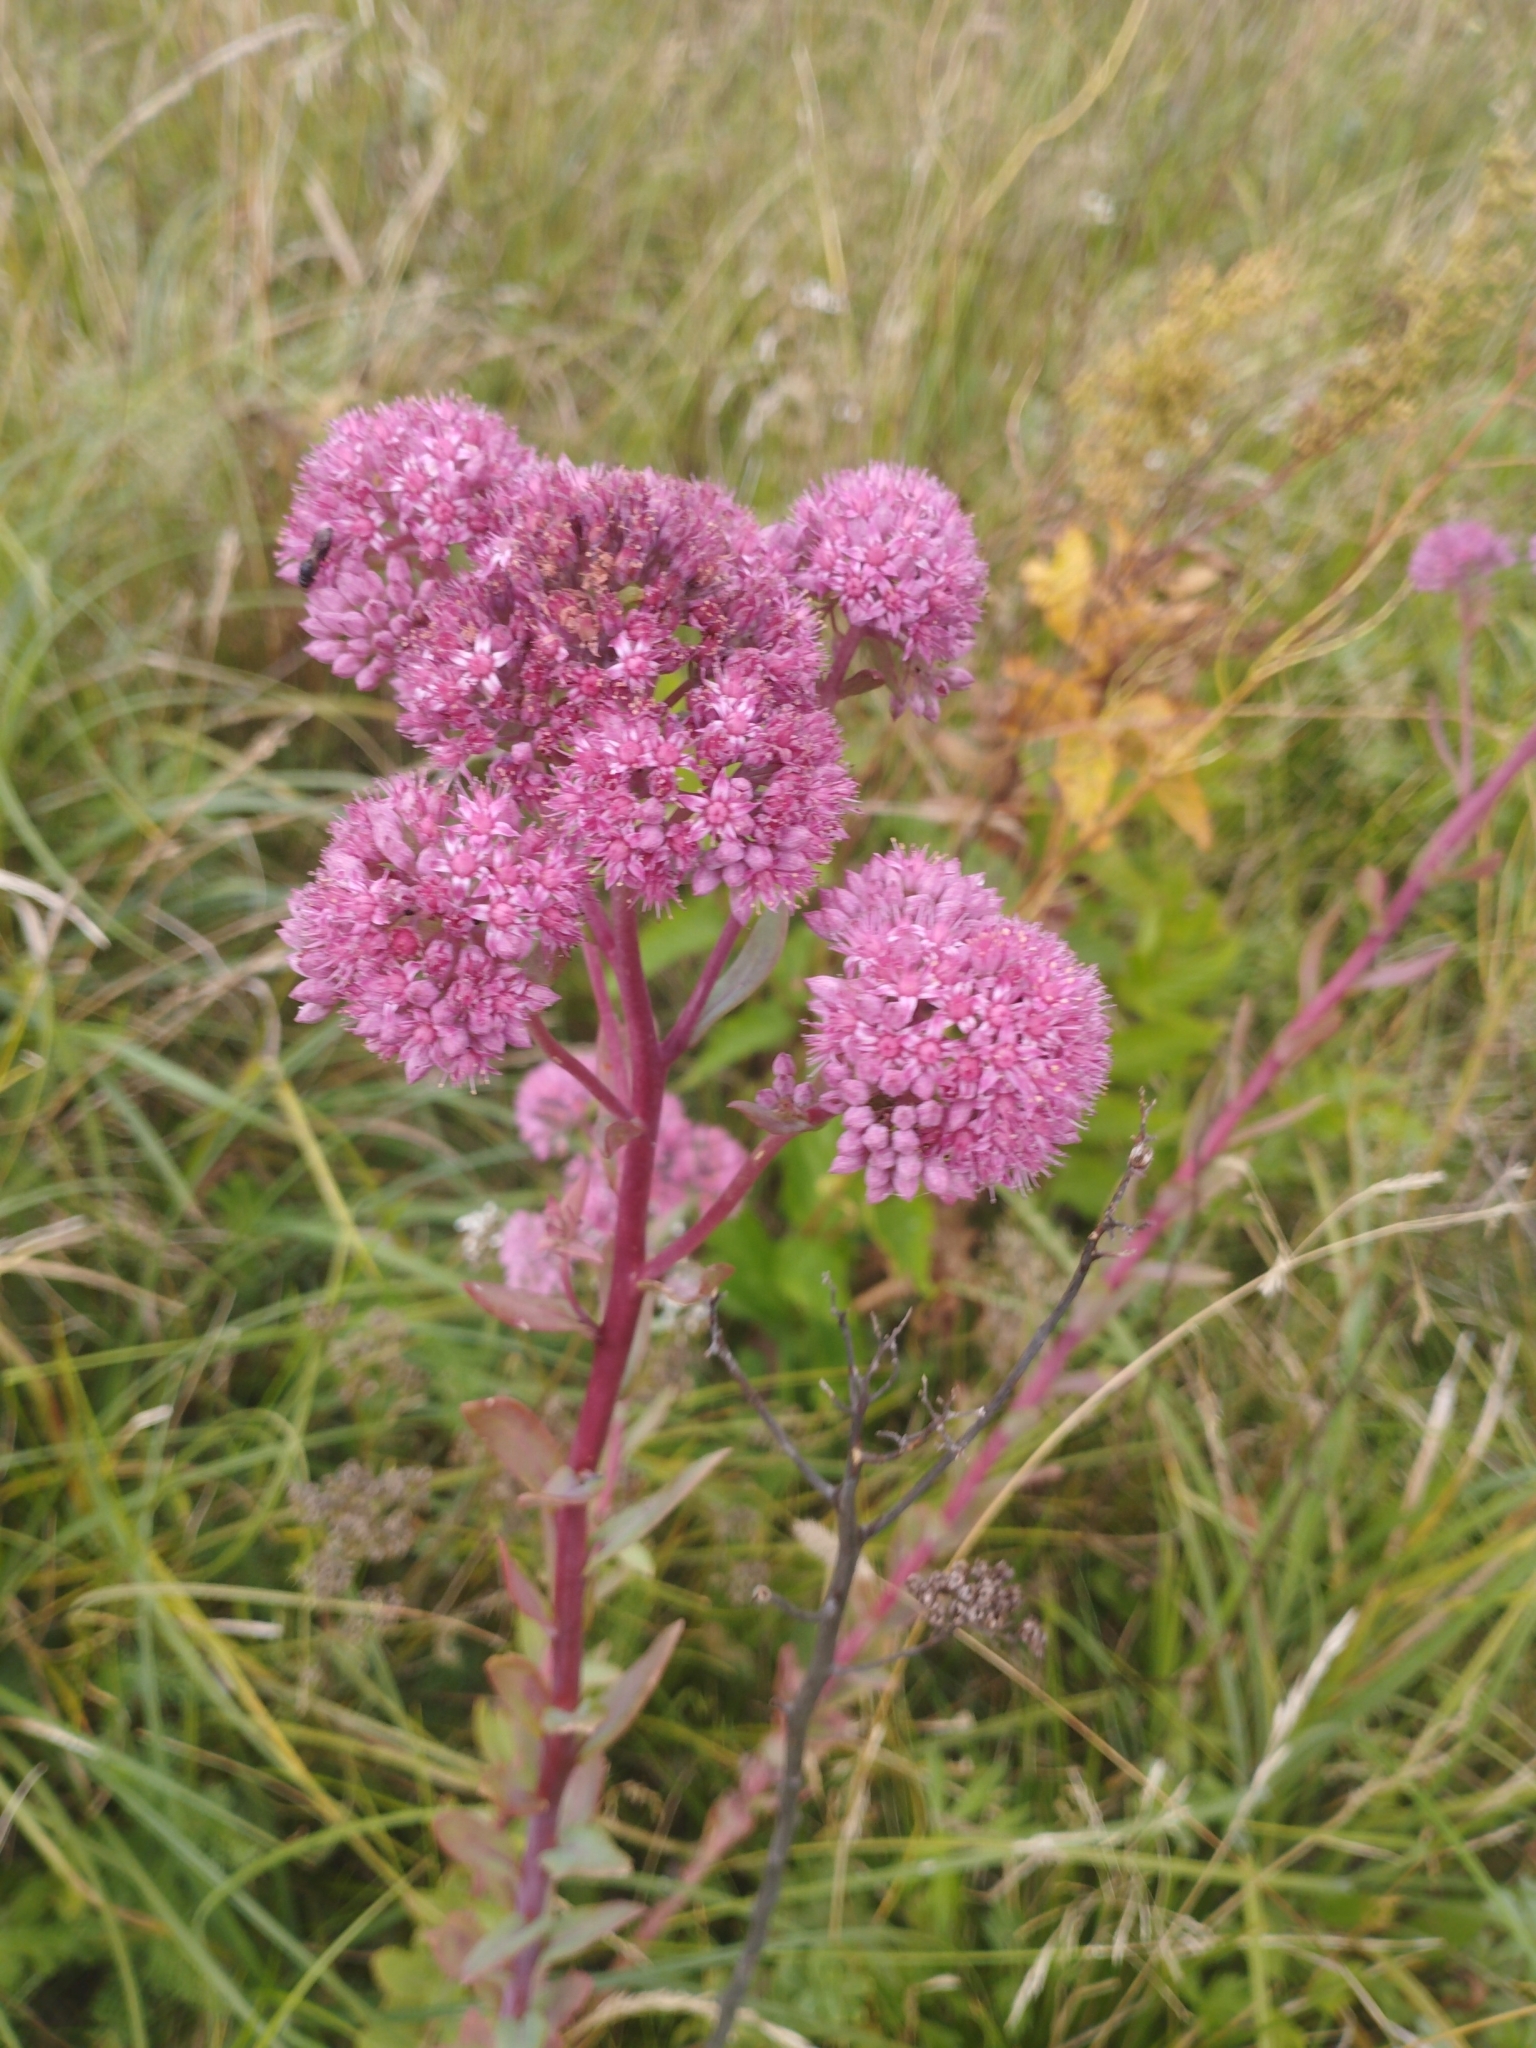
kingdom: Plantae
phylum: Tracheophyta
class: Magnoliopsida
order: Saxifragales
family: Crassulaceae
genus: Hylotelephium
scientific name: Hylotelephium telephium
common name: Live-forever
